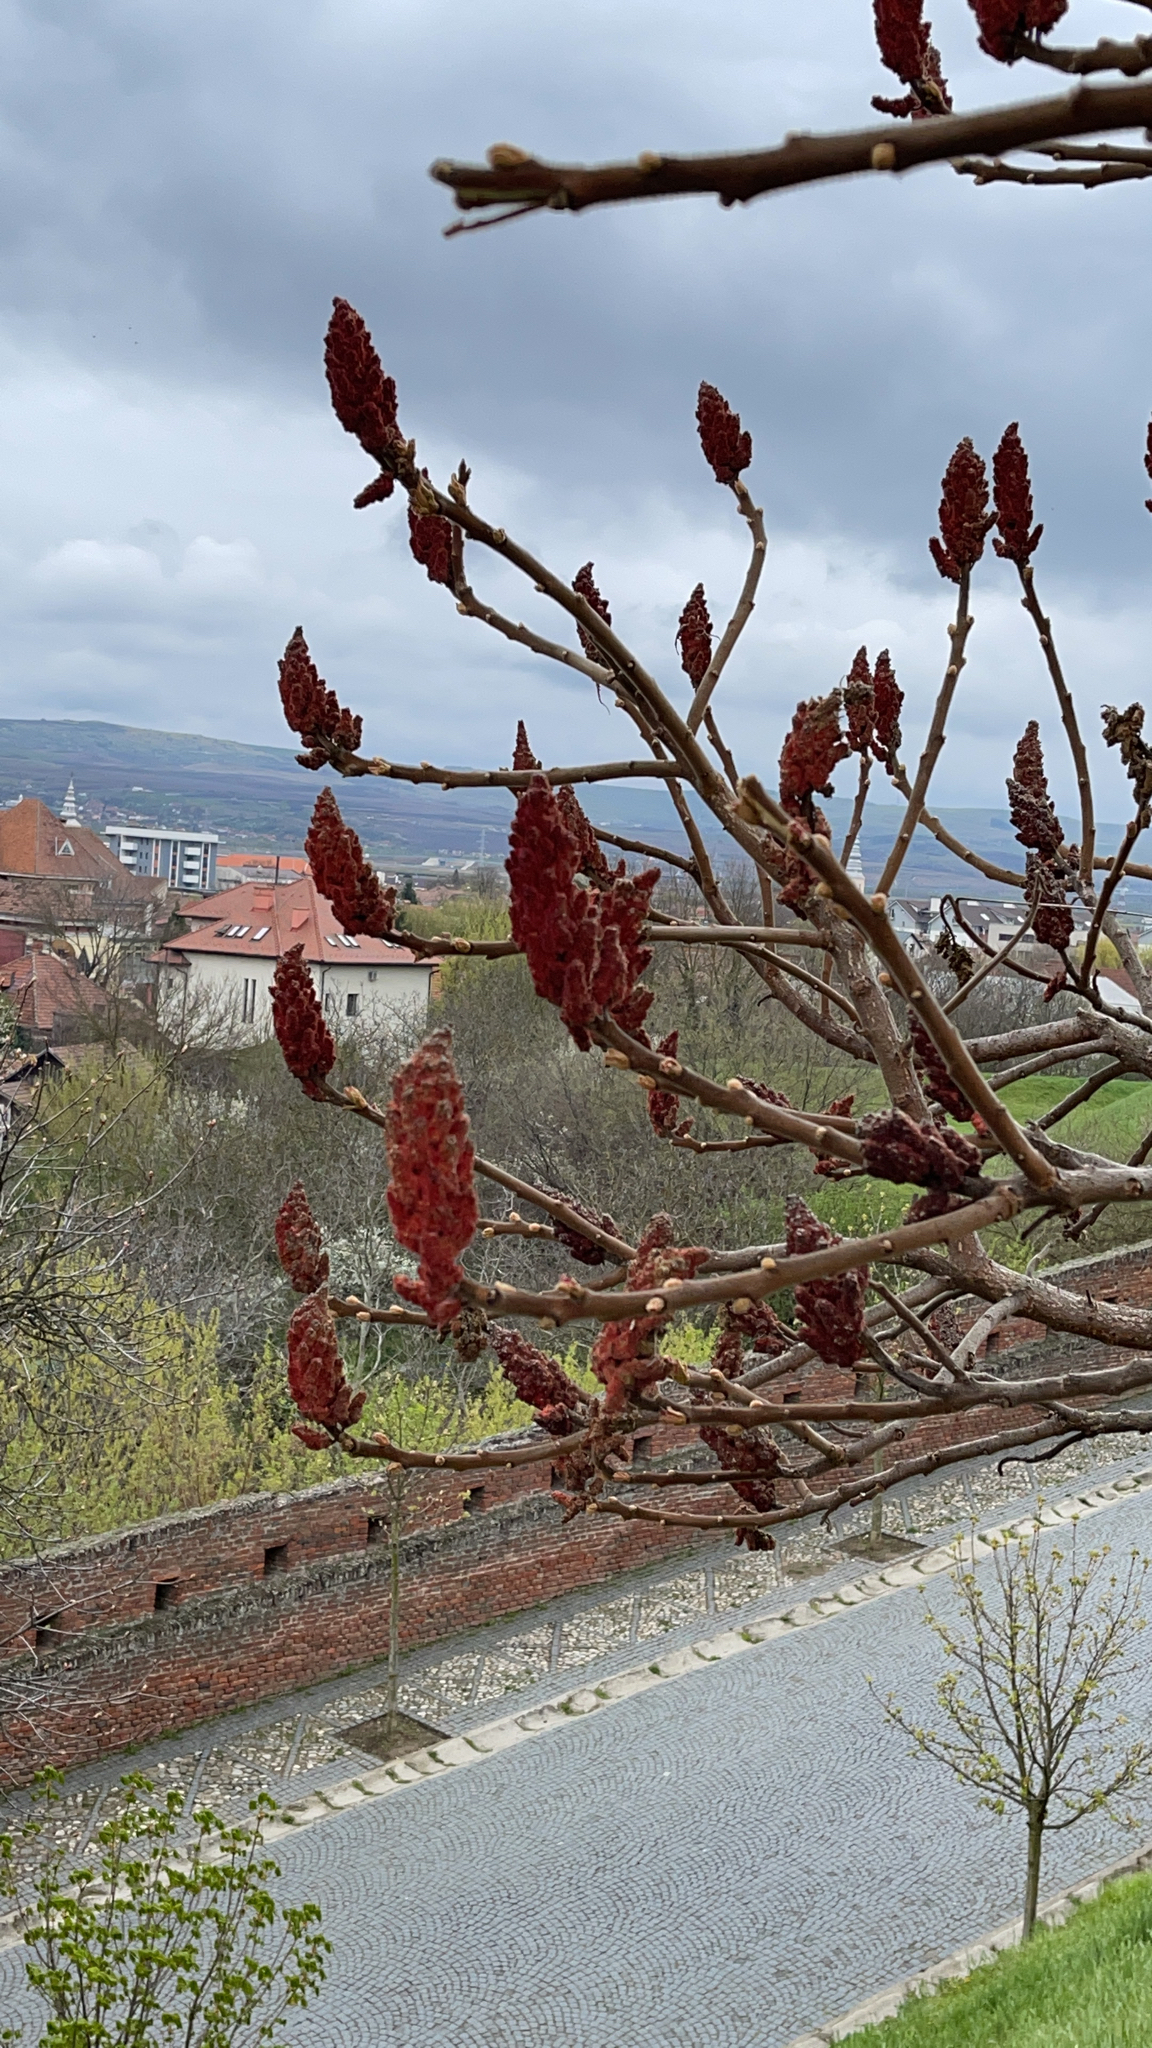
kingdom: Plantae
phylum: Tracheophyta
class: Magnoliopsida
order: Sapindales
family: Anacardiaceae
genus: Rhus
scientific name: Rhus typhina
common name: Staghorn sumac
